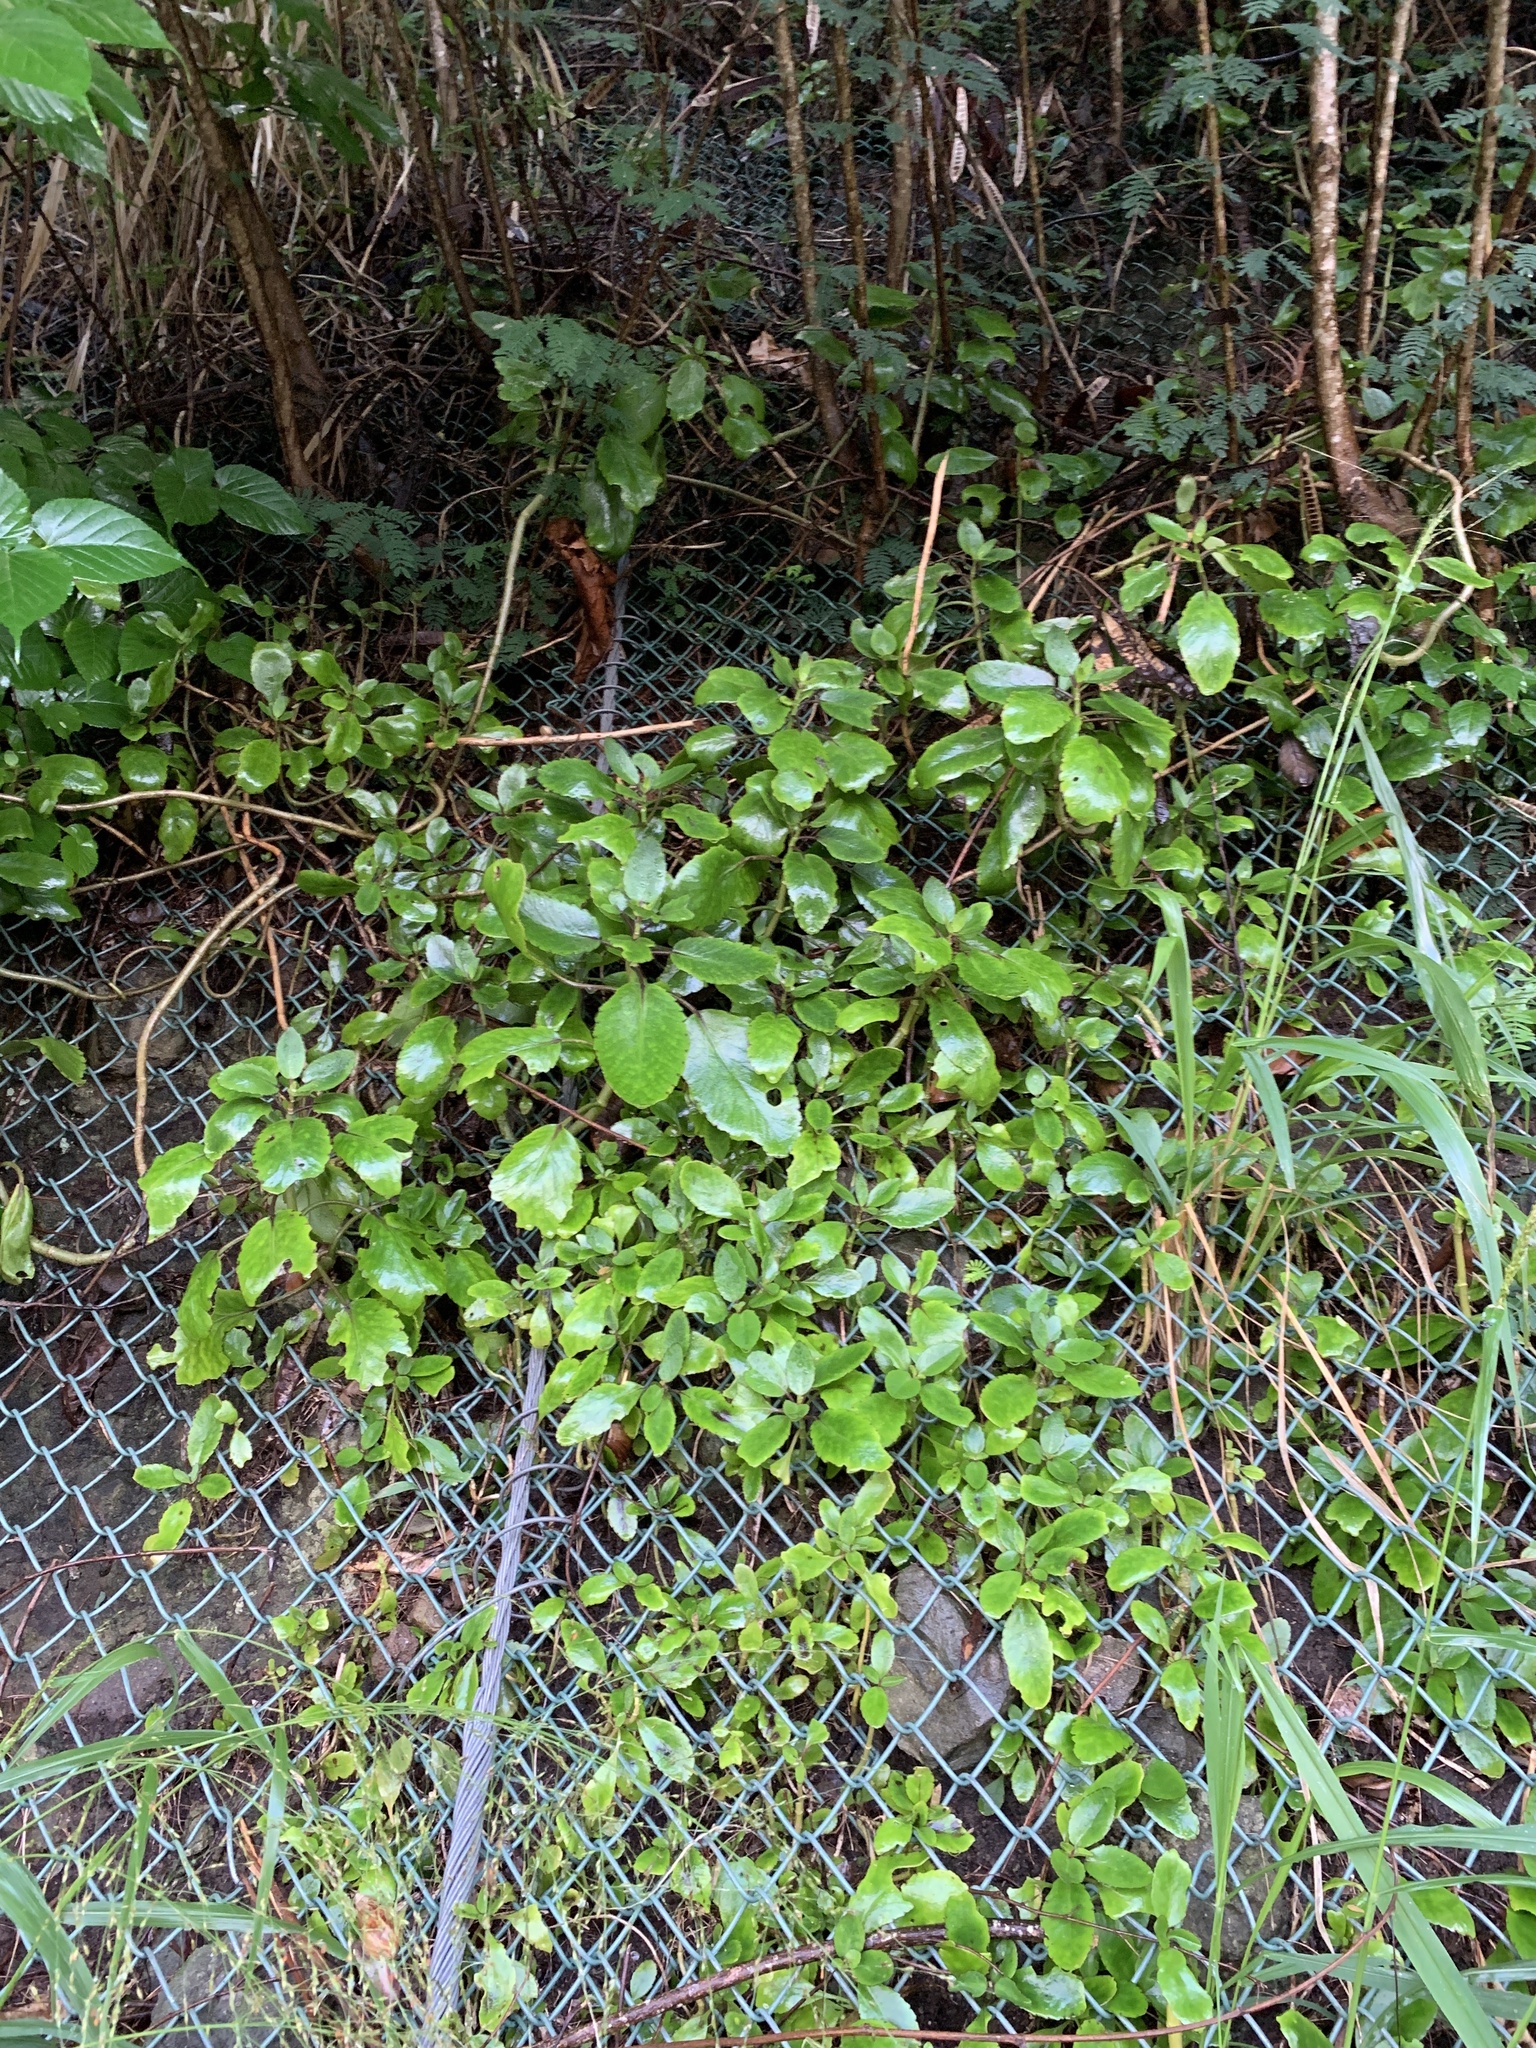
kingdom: Plantae
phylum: Tracheophyta
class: Magnoliopsida
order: Saxifragales
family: Crassulaceae
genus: Kalanchoe
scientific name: Kalanchoe pinnata
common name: Cathedral bells
